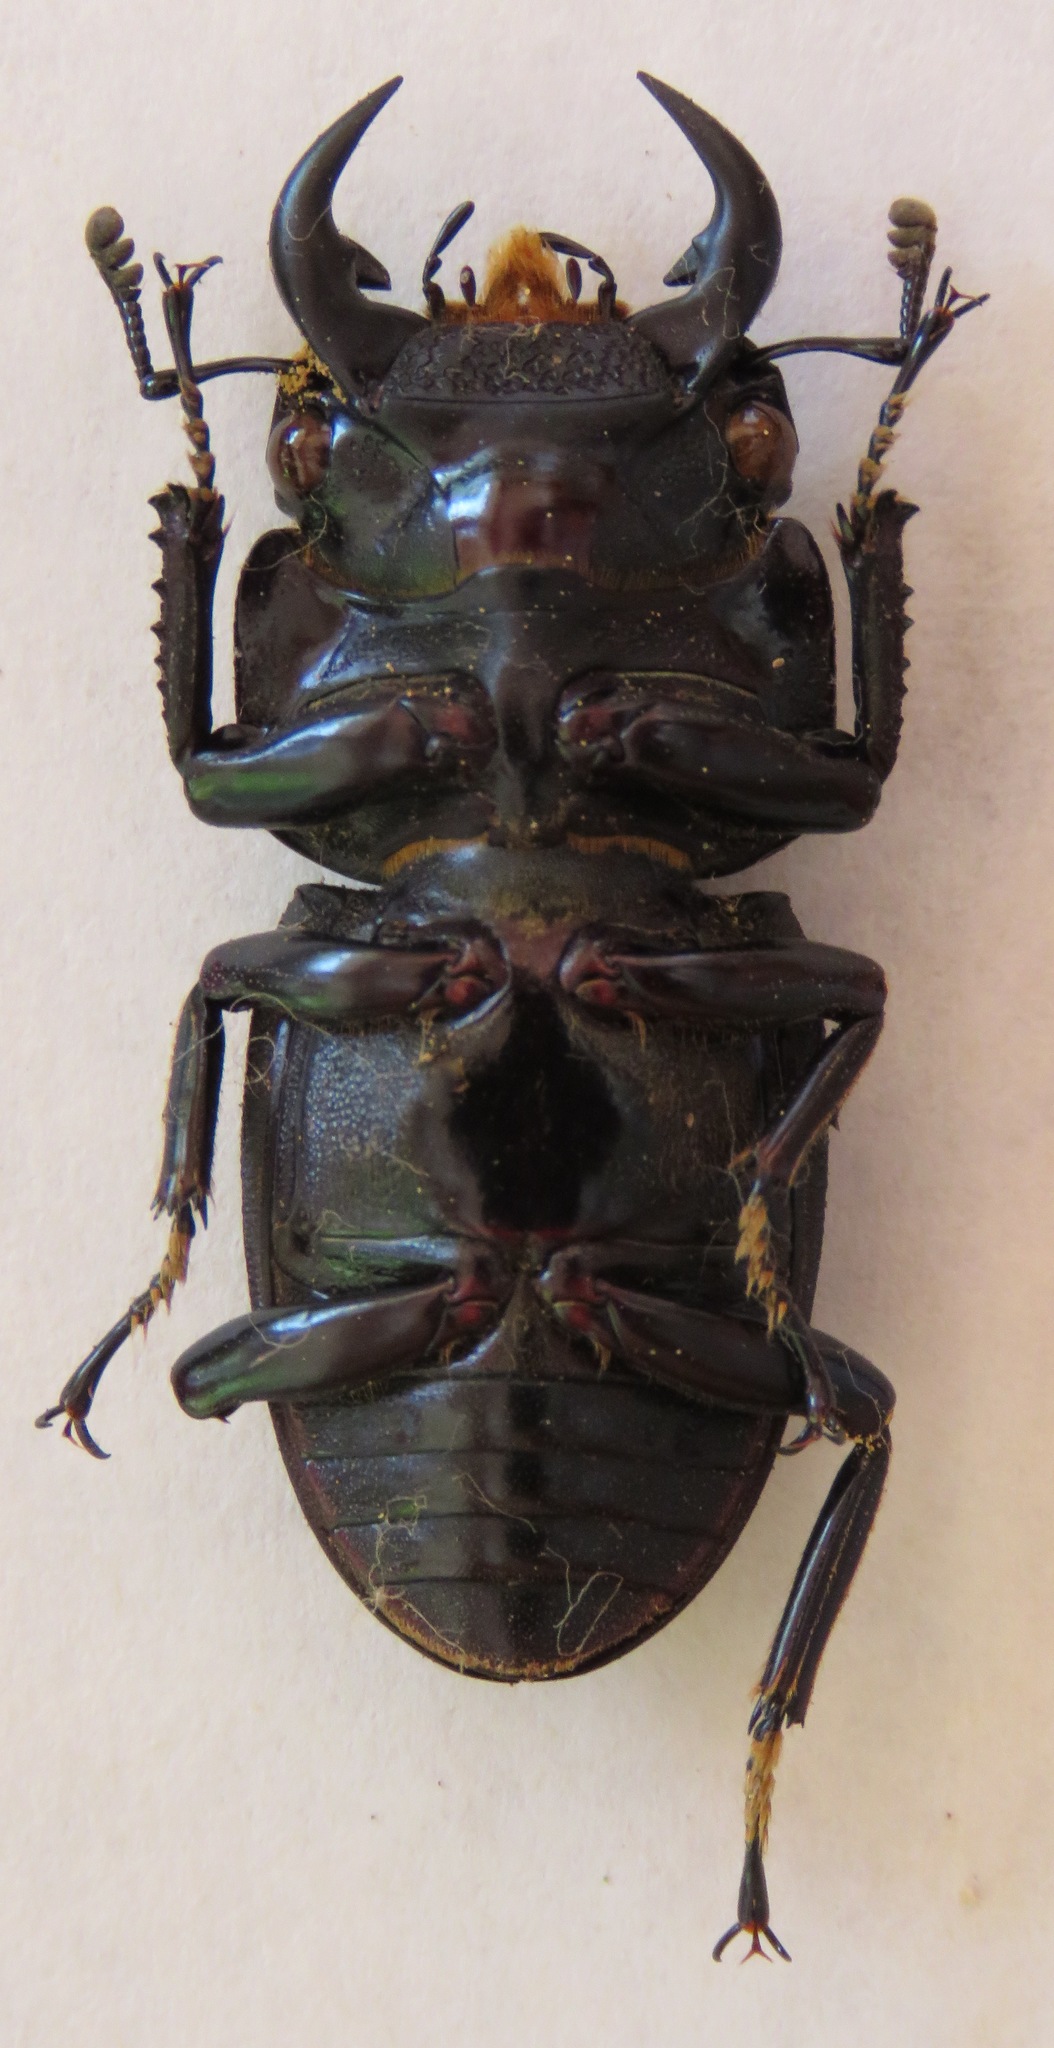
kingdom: Animalia
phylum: Arthropoda
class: Insecta
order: Coleoptera
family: Lucanidae
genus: Dorcus
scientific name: Dorcus curvidens
